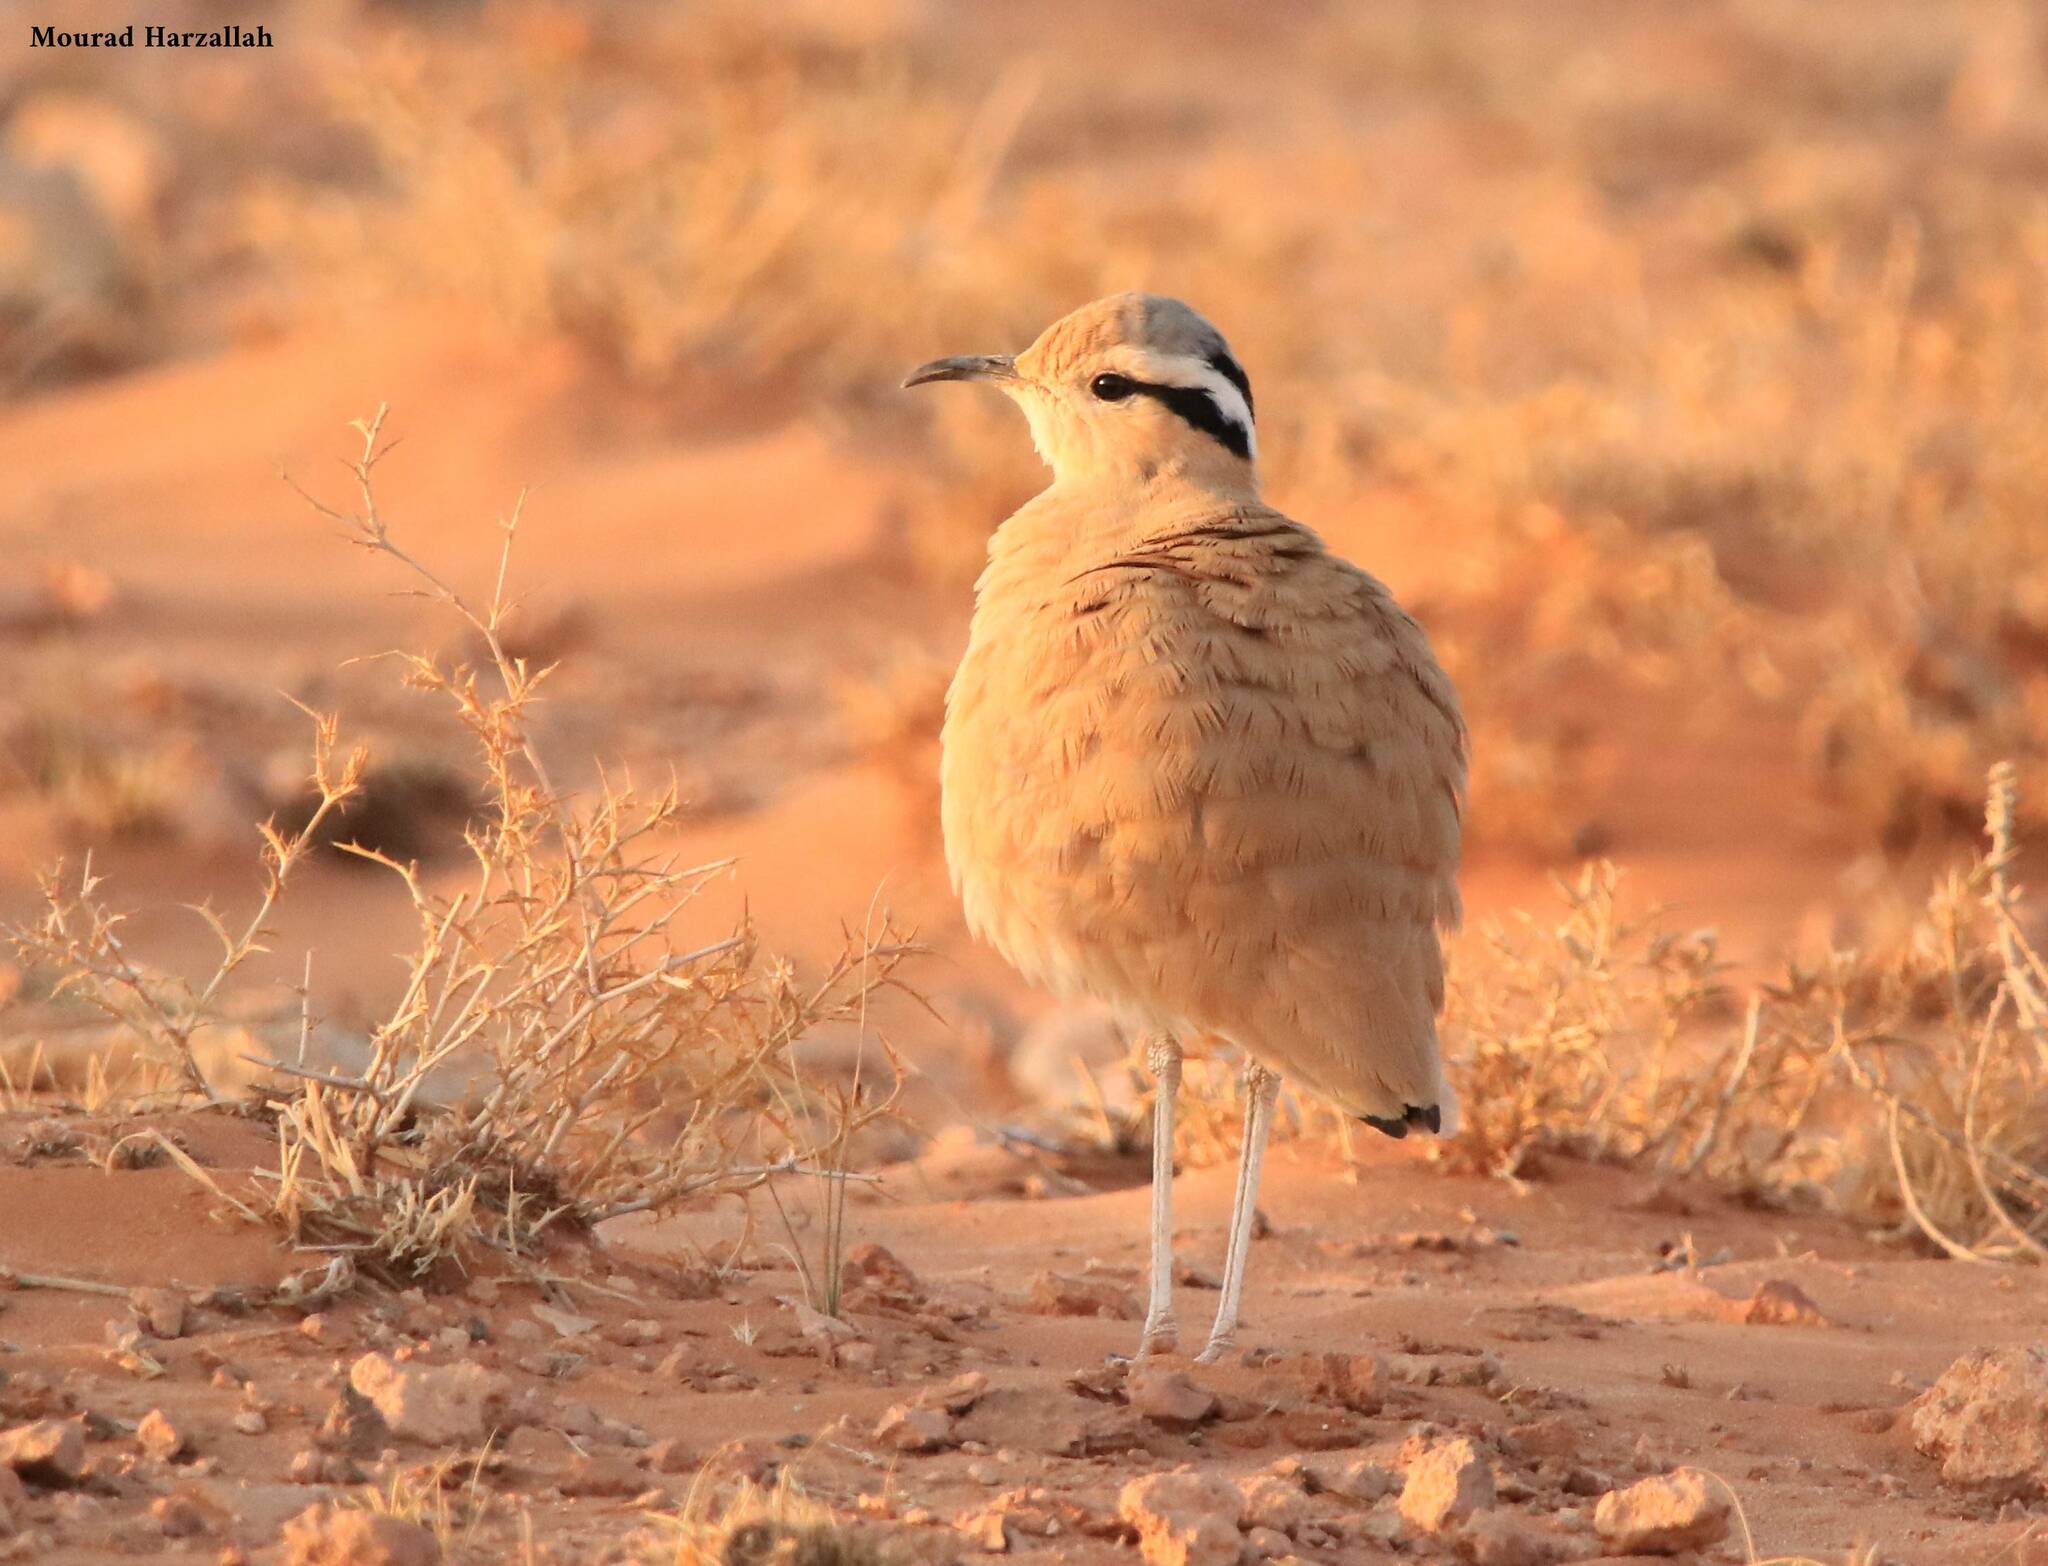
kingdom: Animalia
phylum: Chordata
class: Aves
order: Charadriiformes
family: Glareolidae
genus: Cursorius
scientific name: Cursorius cursor
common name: Cream-colored courser
